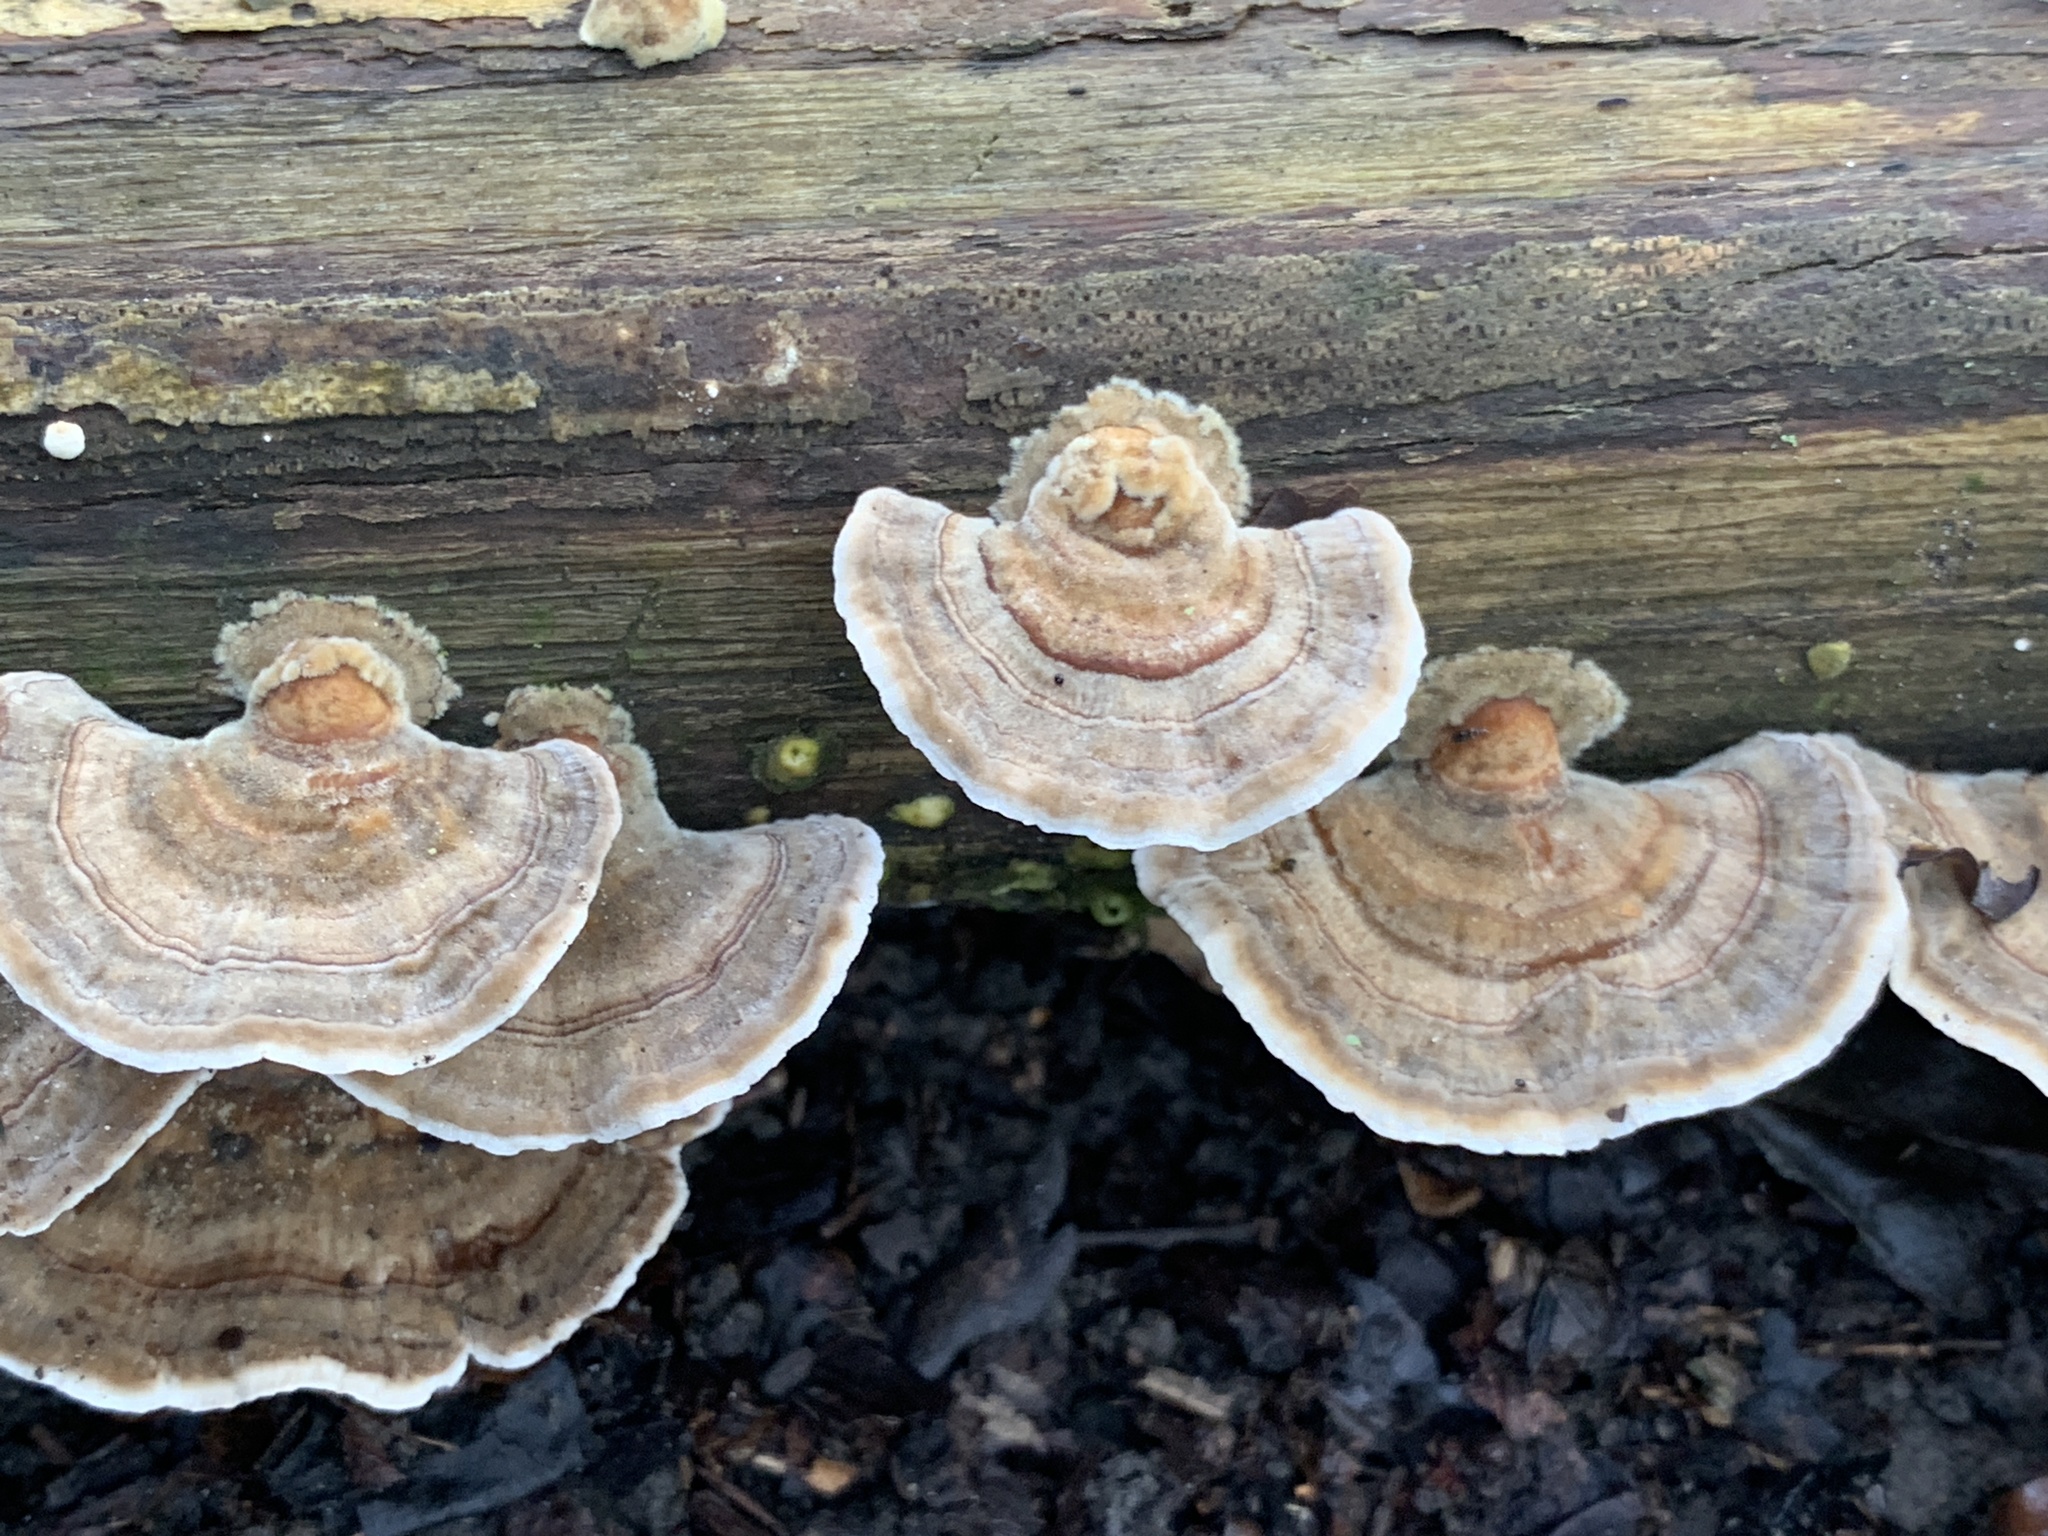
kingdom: Fungi
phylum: Basidiomycota
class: Agaricomycetes
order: Polyporales
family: Polyporaceae
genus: Trametes
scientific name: Trametes ochracea
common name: Ochre bracket
